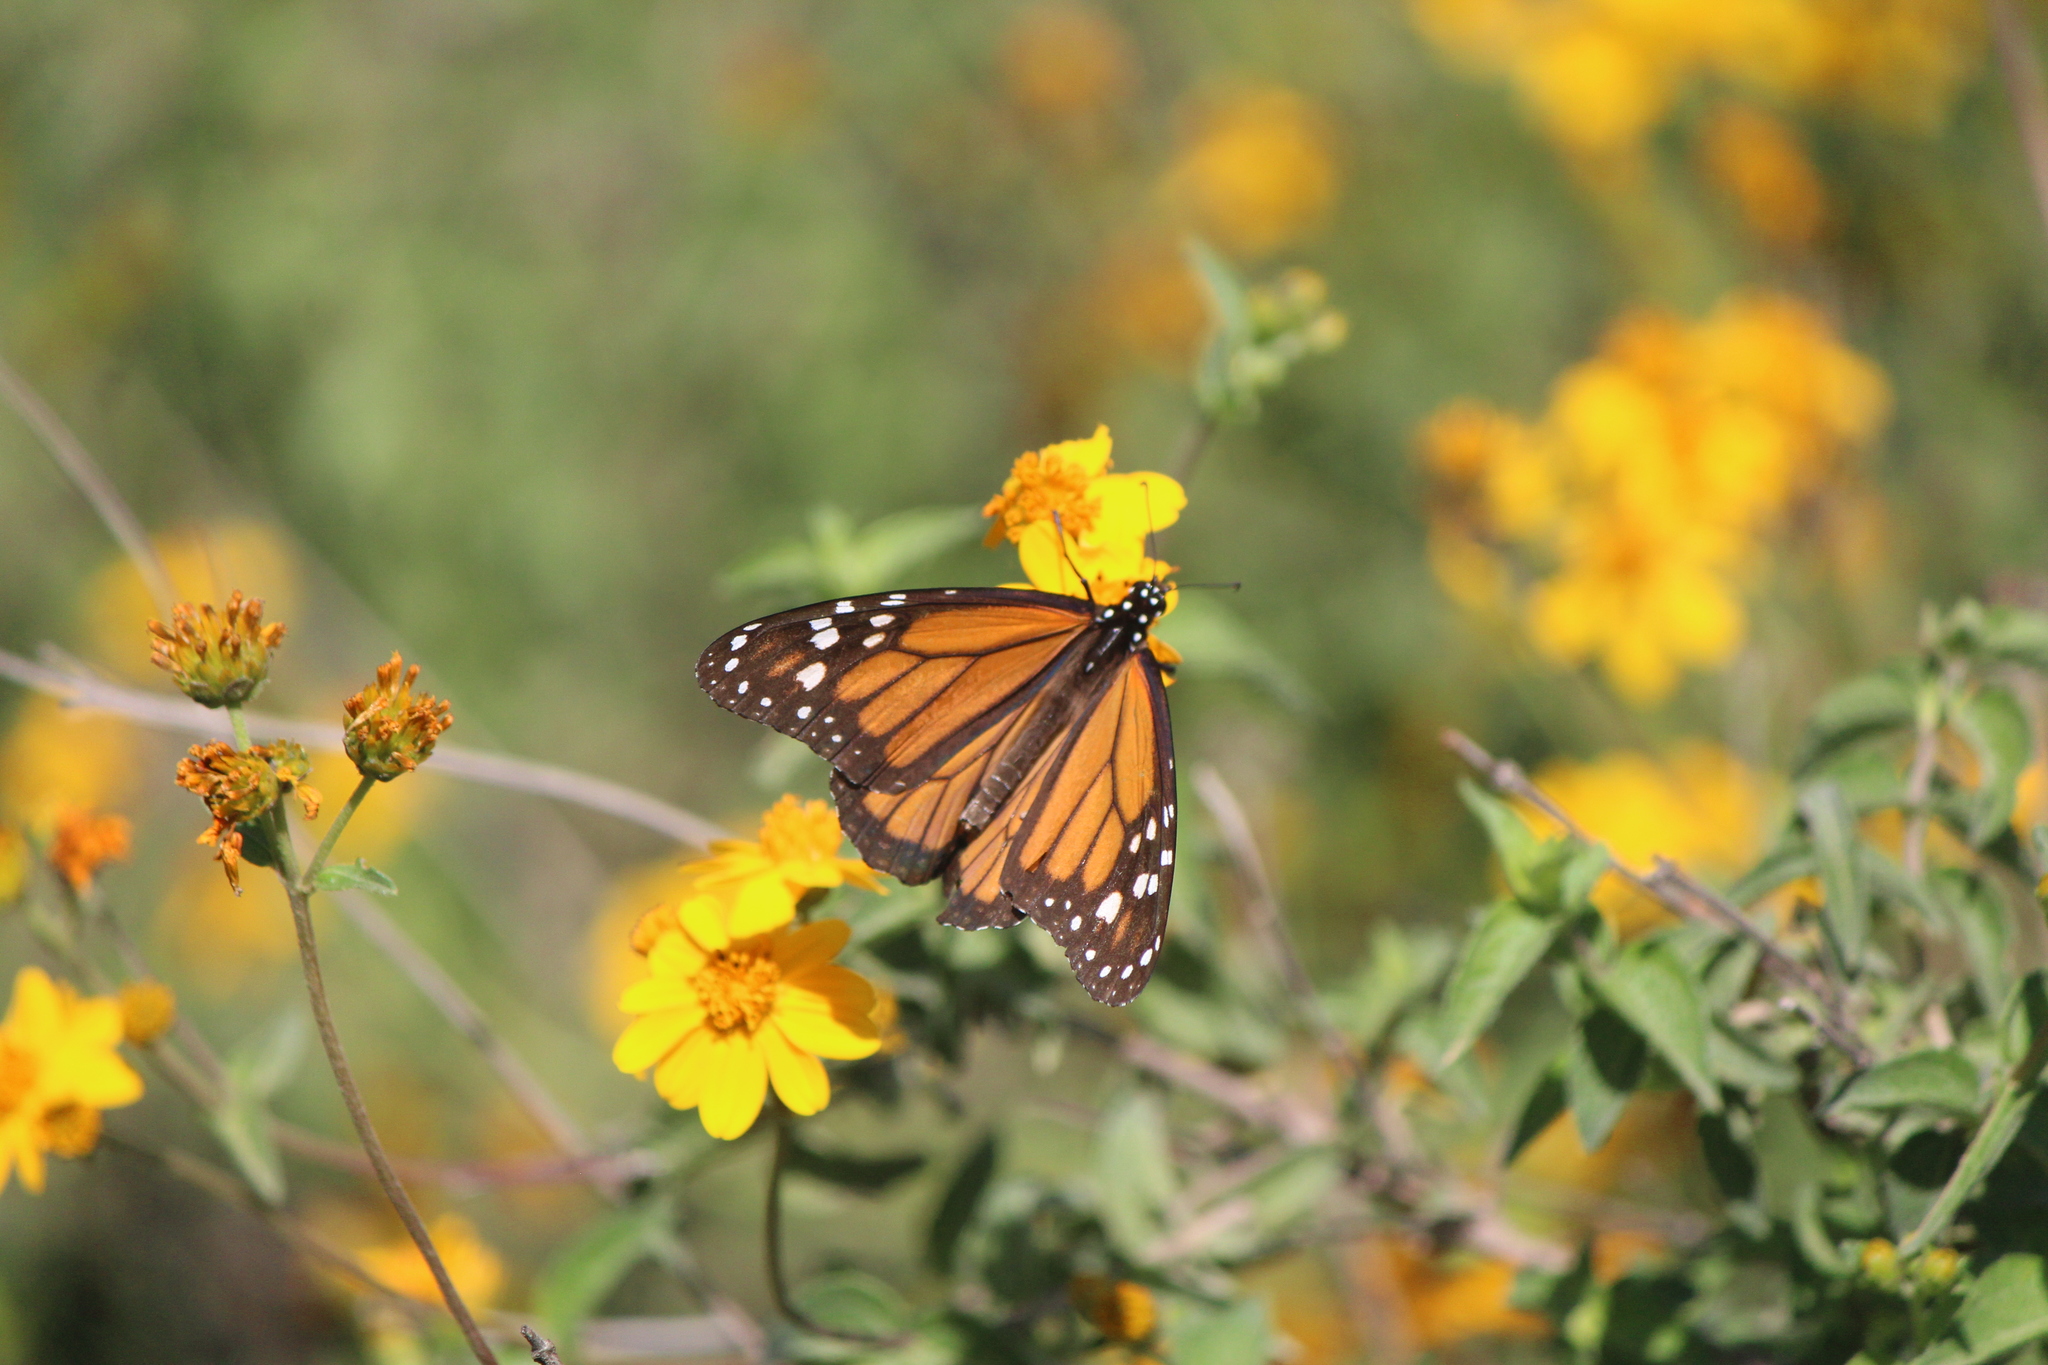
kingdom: Animalia
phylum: Arthropoda
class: Insecta
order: Lepidoptera
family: Nymphalidae
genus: Danaus
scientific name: Danaus plexippus
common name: Monarch
